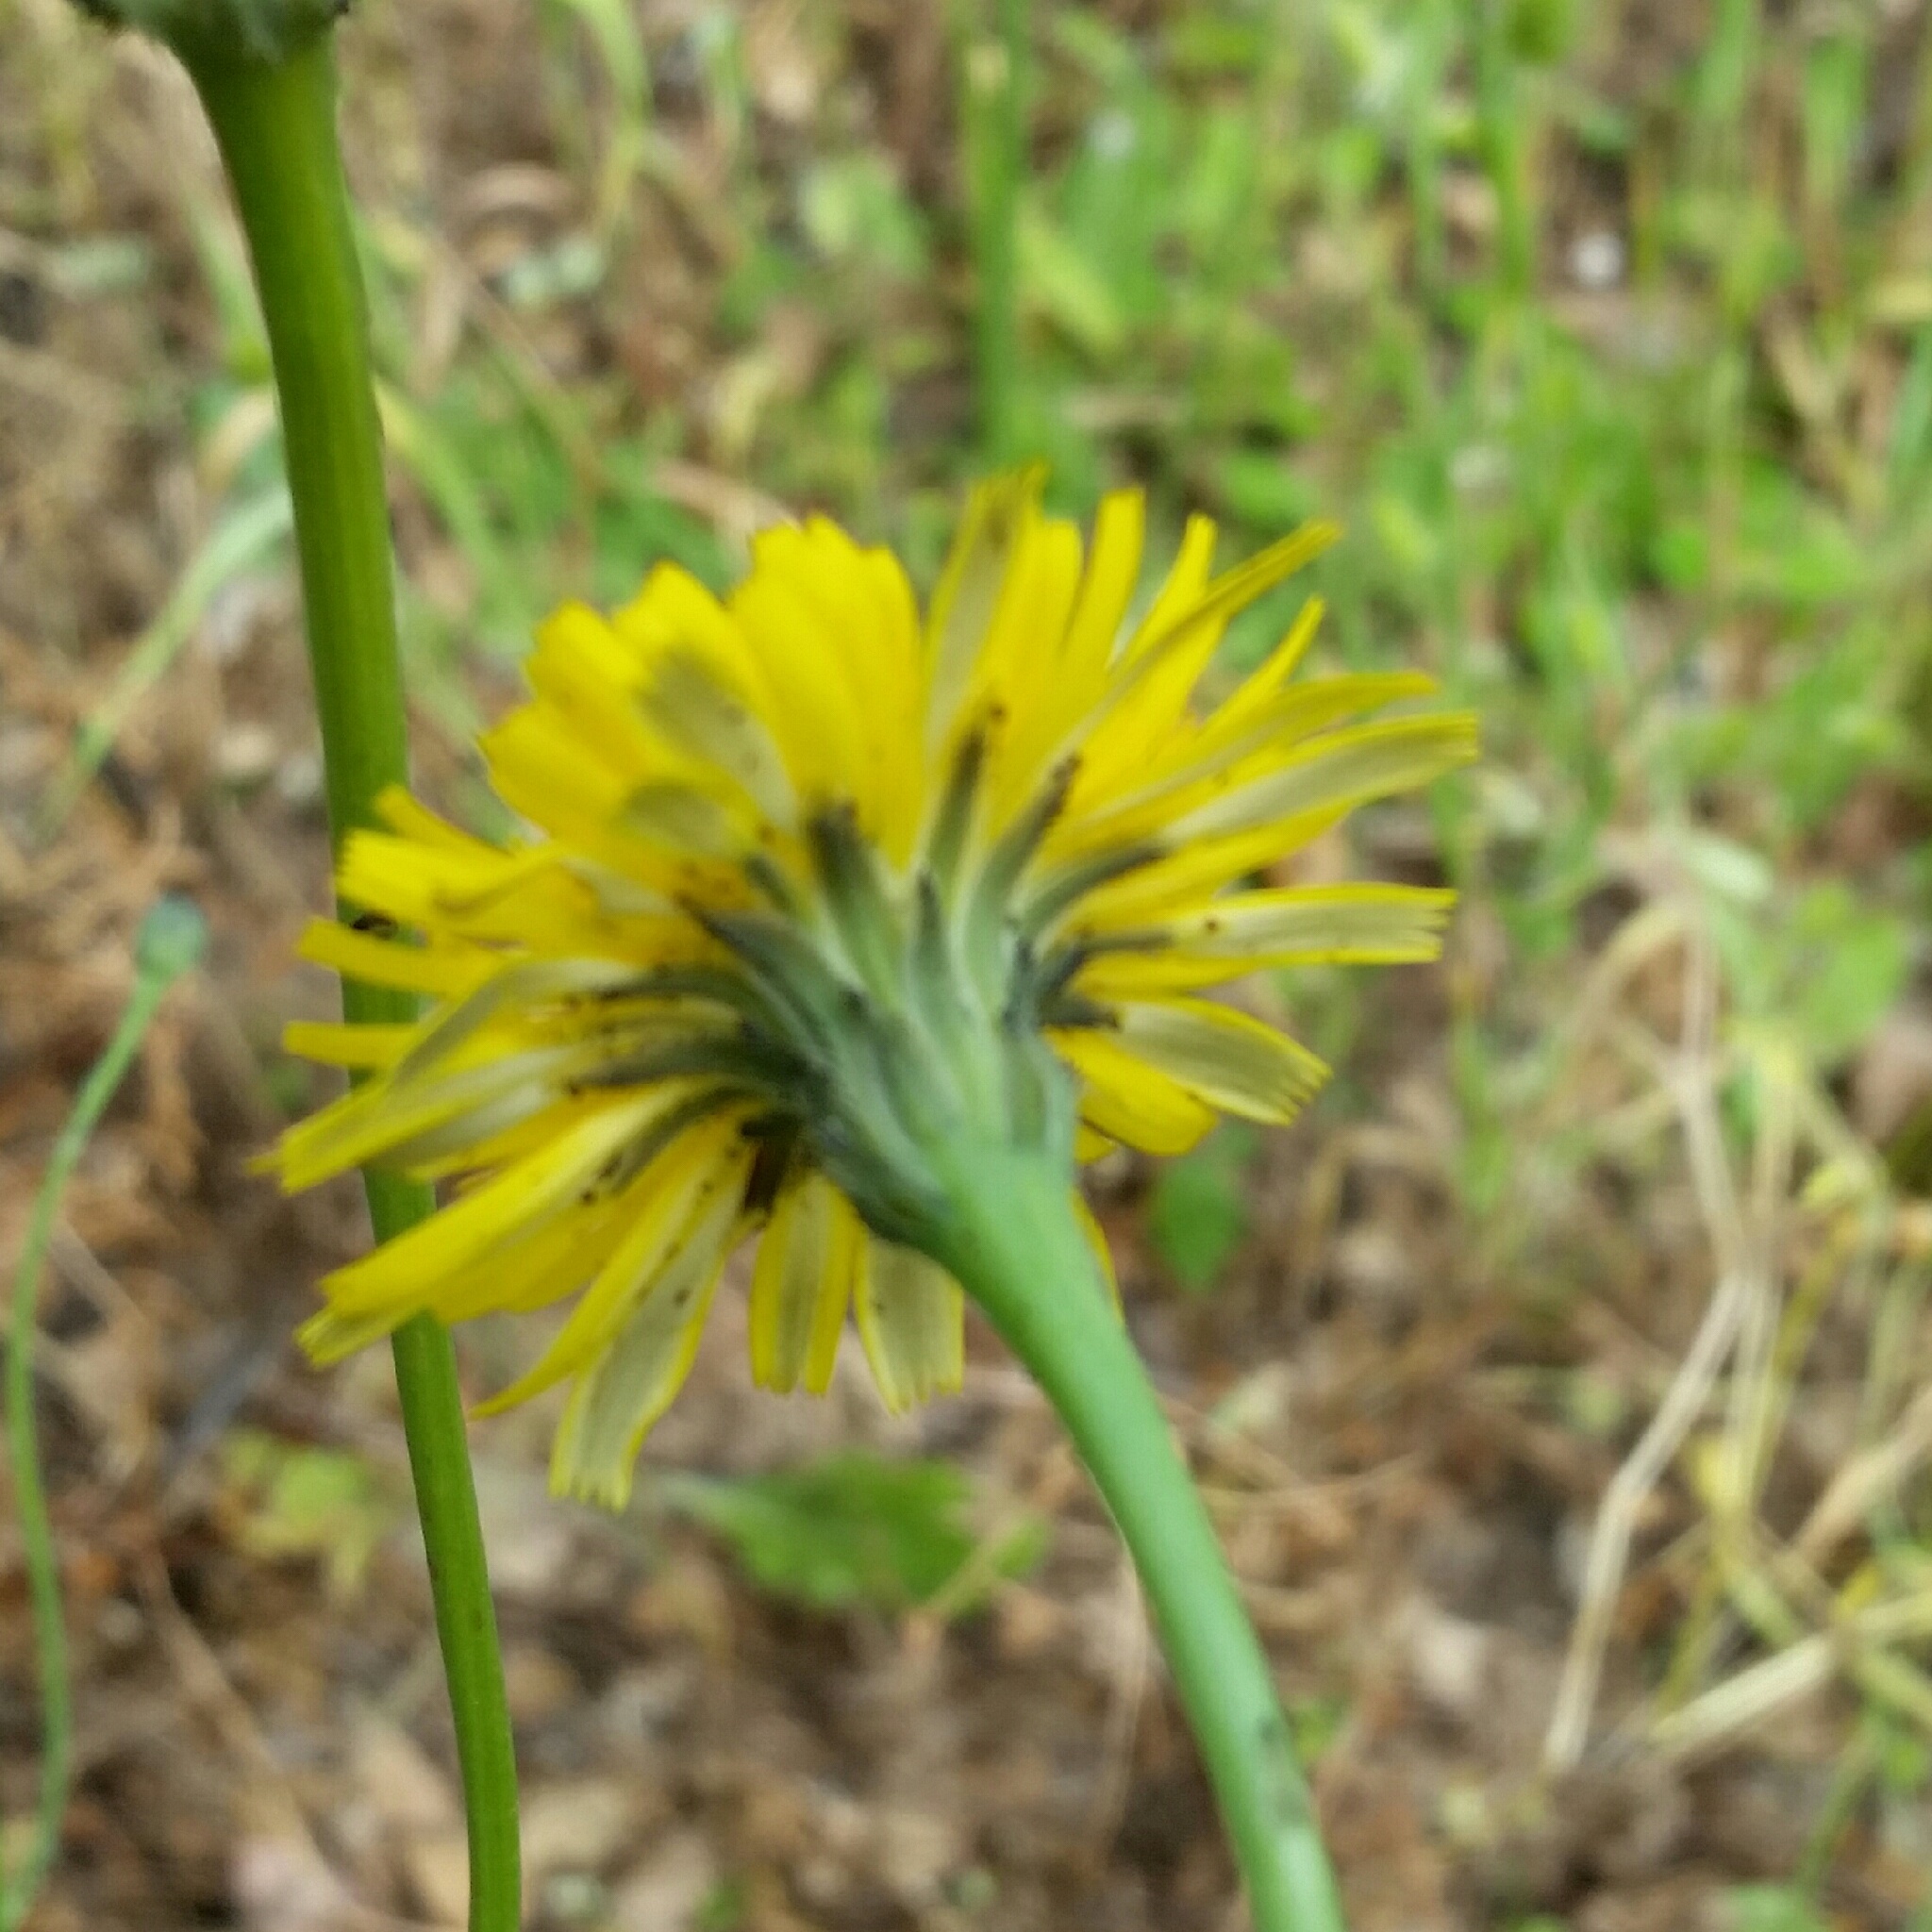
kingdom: Plantae
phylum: Tracheophyta
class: Magnoliopsida
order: Asterales
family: Asteraceae
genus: Hypochaeris
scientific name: Hypochaeris radicata
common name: Flatweed
